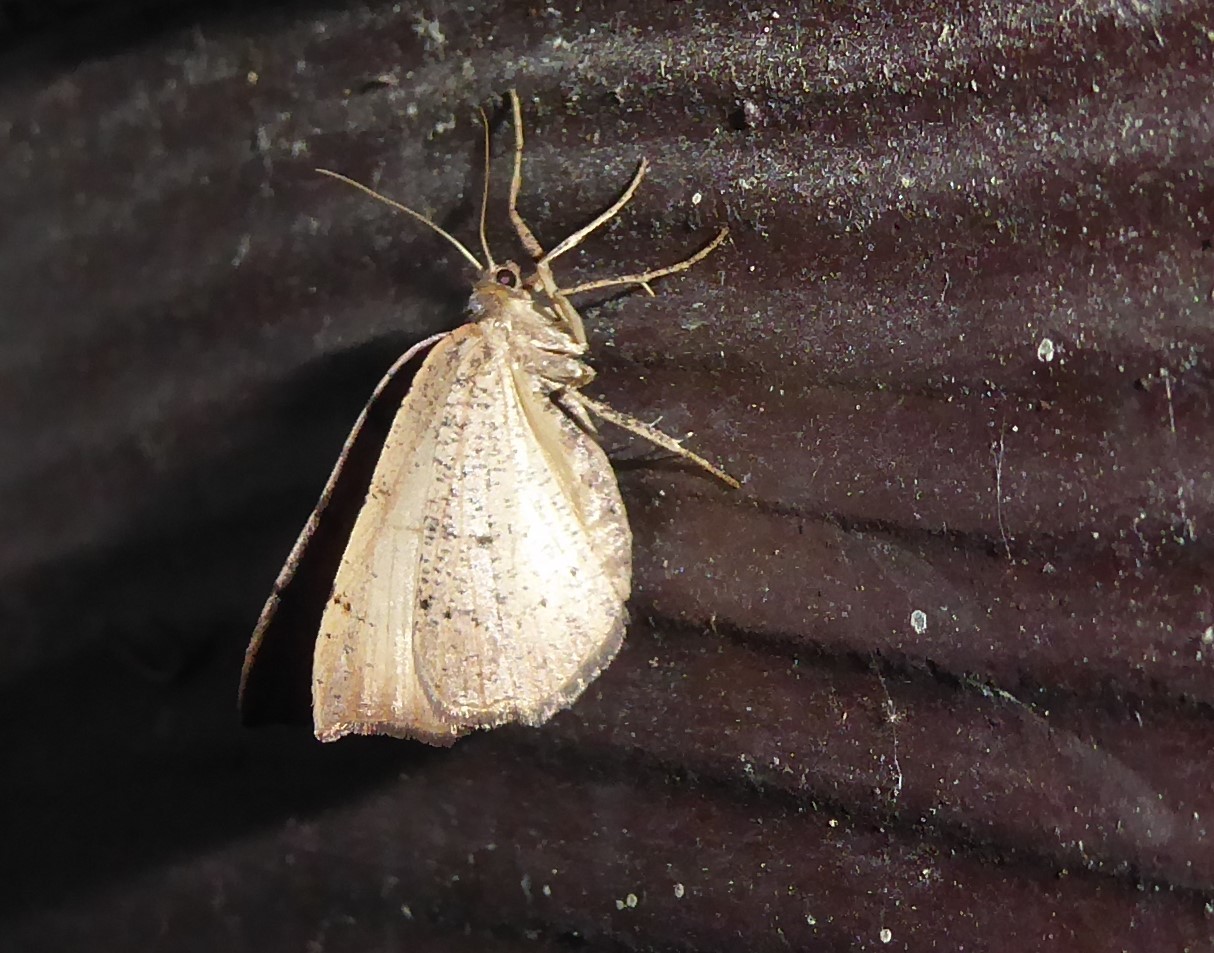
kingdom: Animalia
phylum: Arthropoda
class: Insecta
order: Lepidoptera
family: Geometridae
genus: Sestra
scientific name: Sestra humeraria
